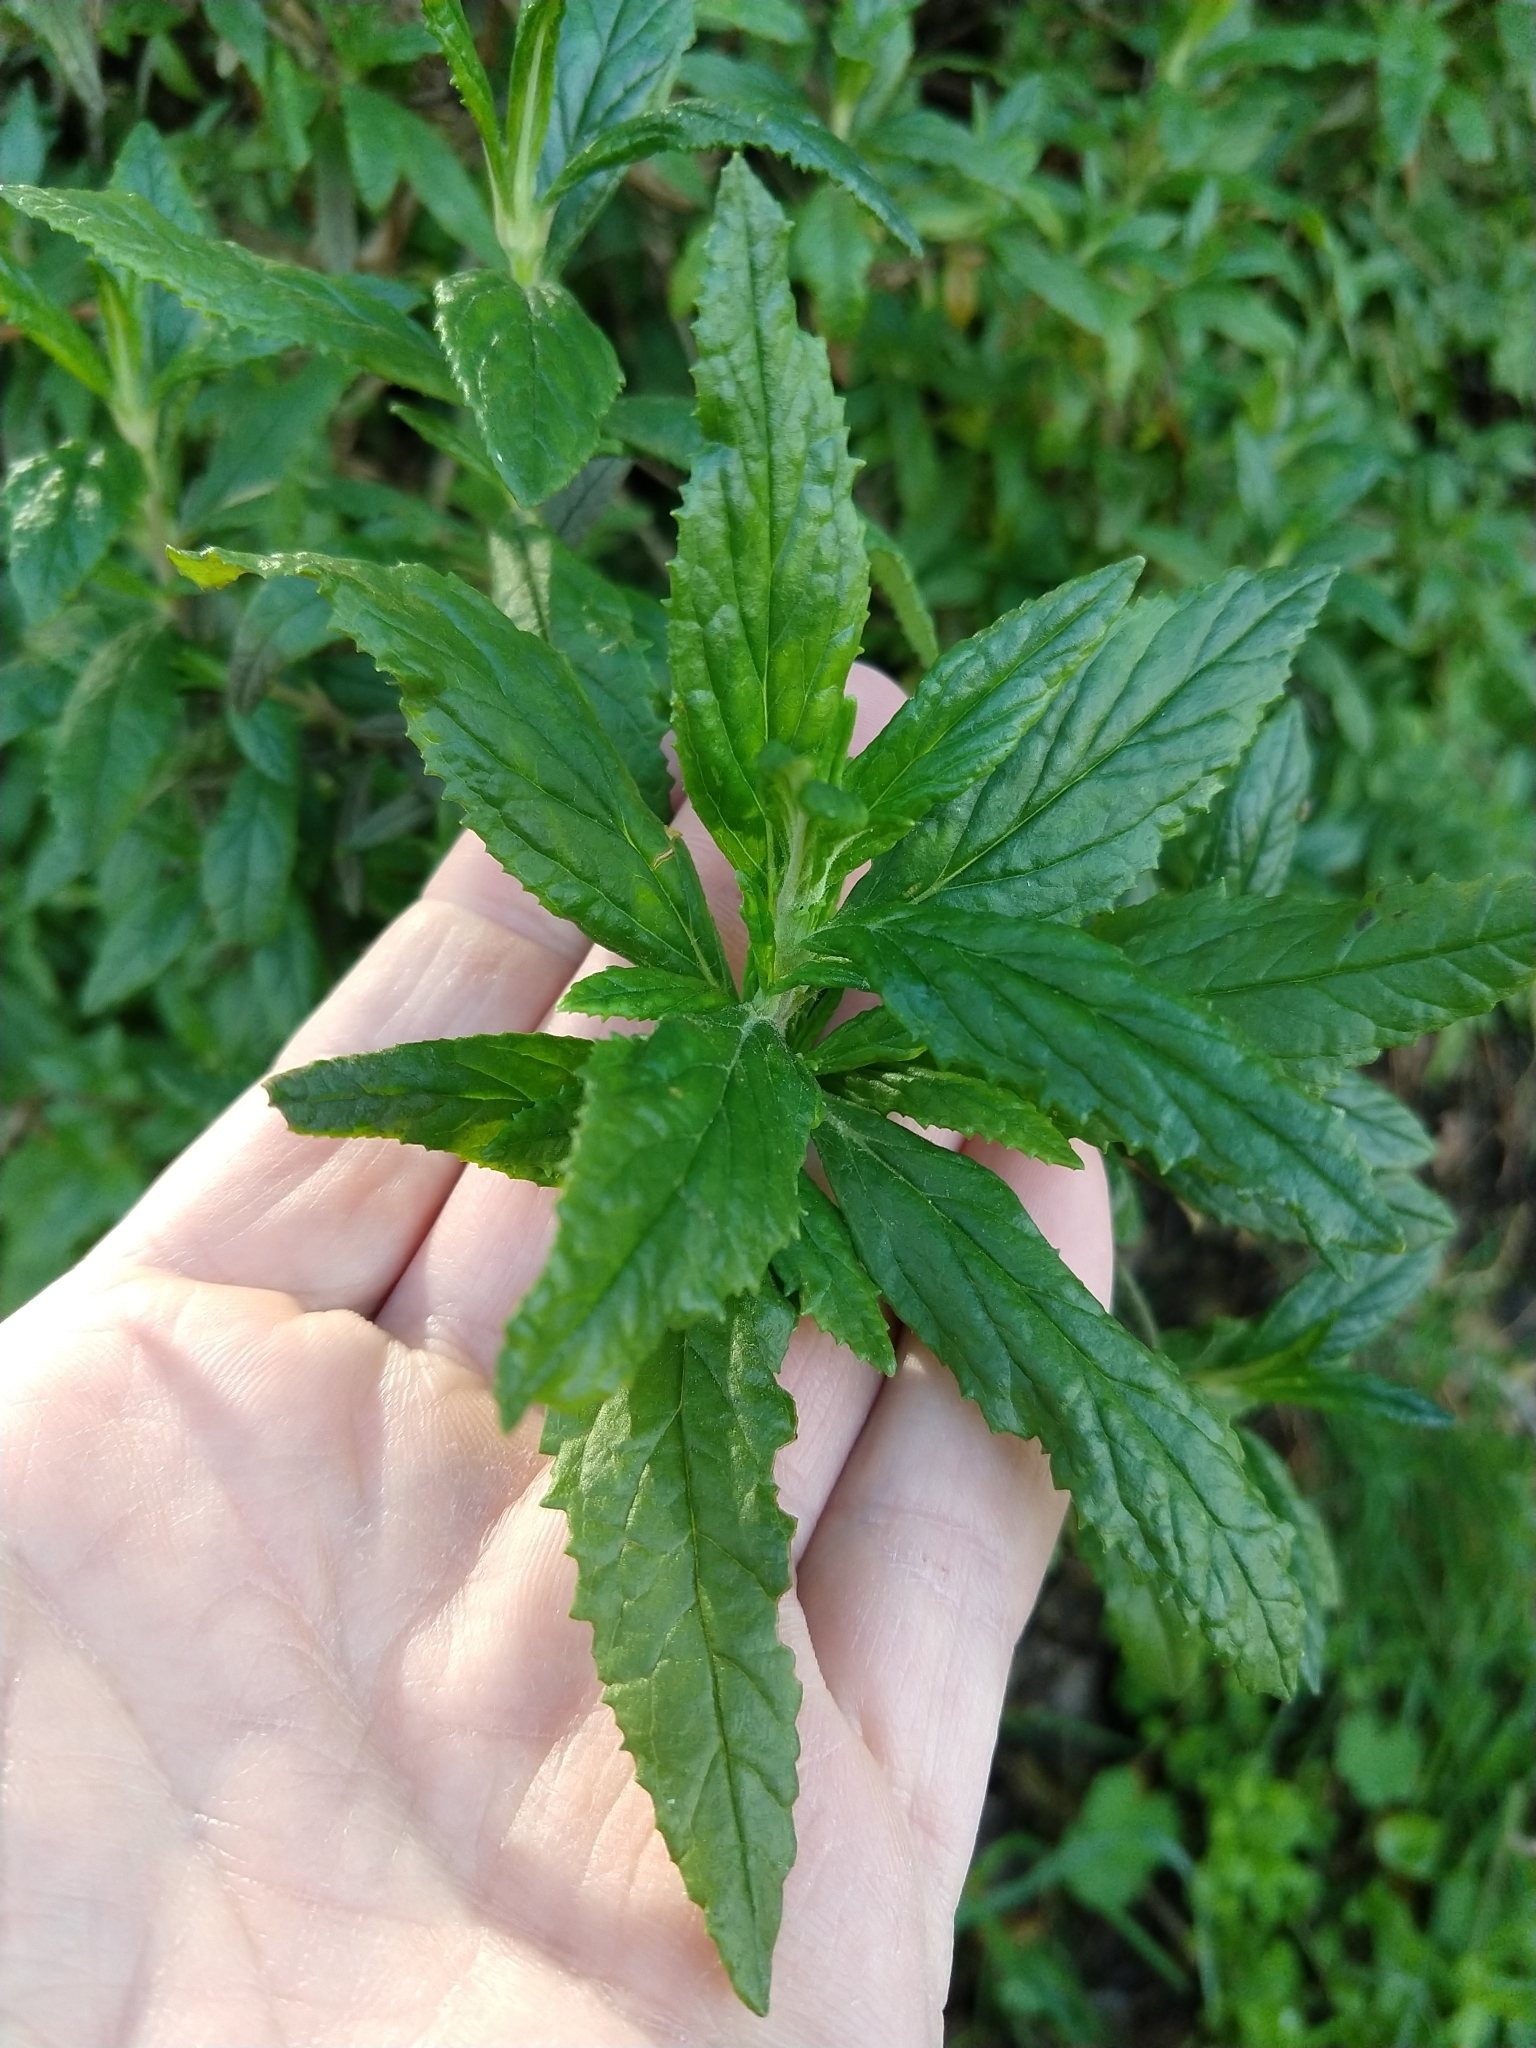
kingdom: Plantae
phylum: Tracheophyta
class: Magnoliopsida
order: Lamiales
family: Phrymaceae
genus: Diplacus
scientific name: Diplacus aurantiacus
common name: Bush monkey-flower
